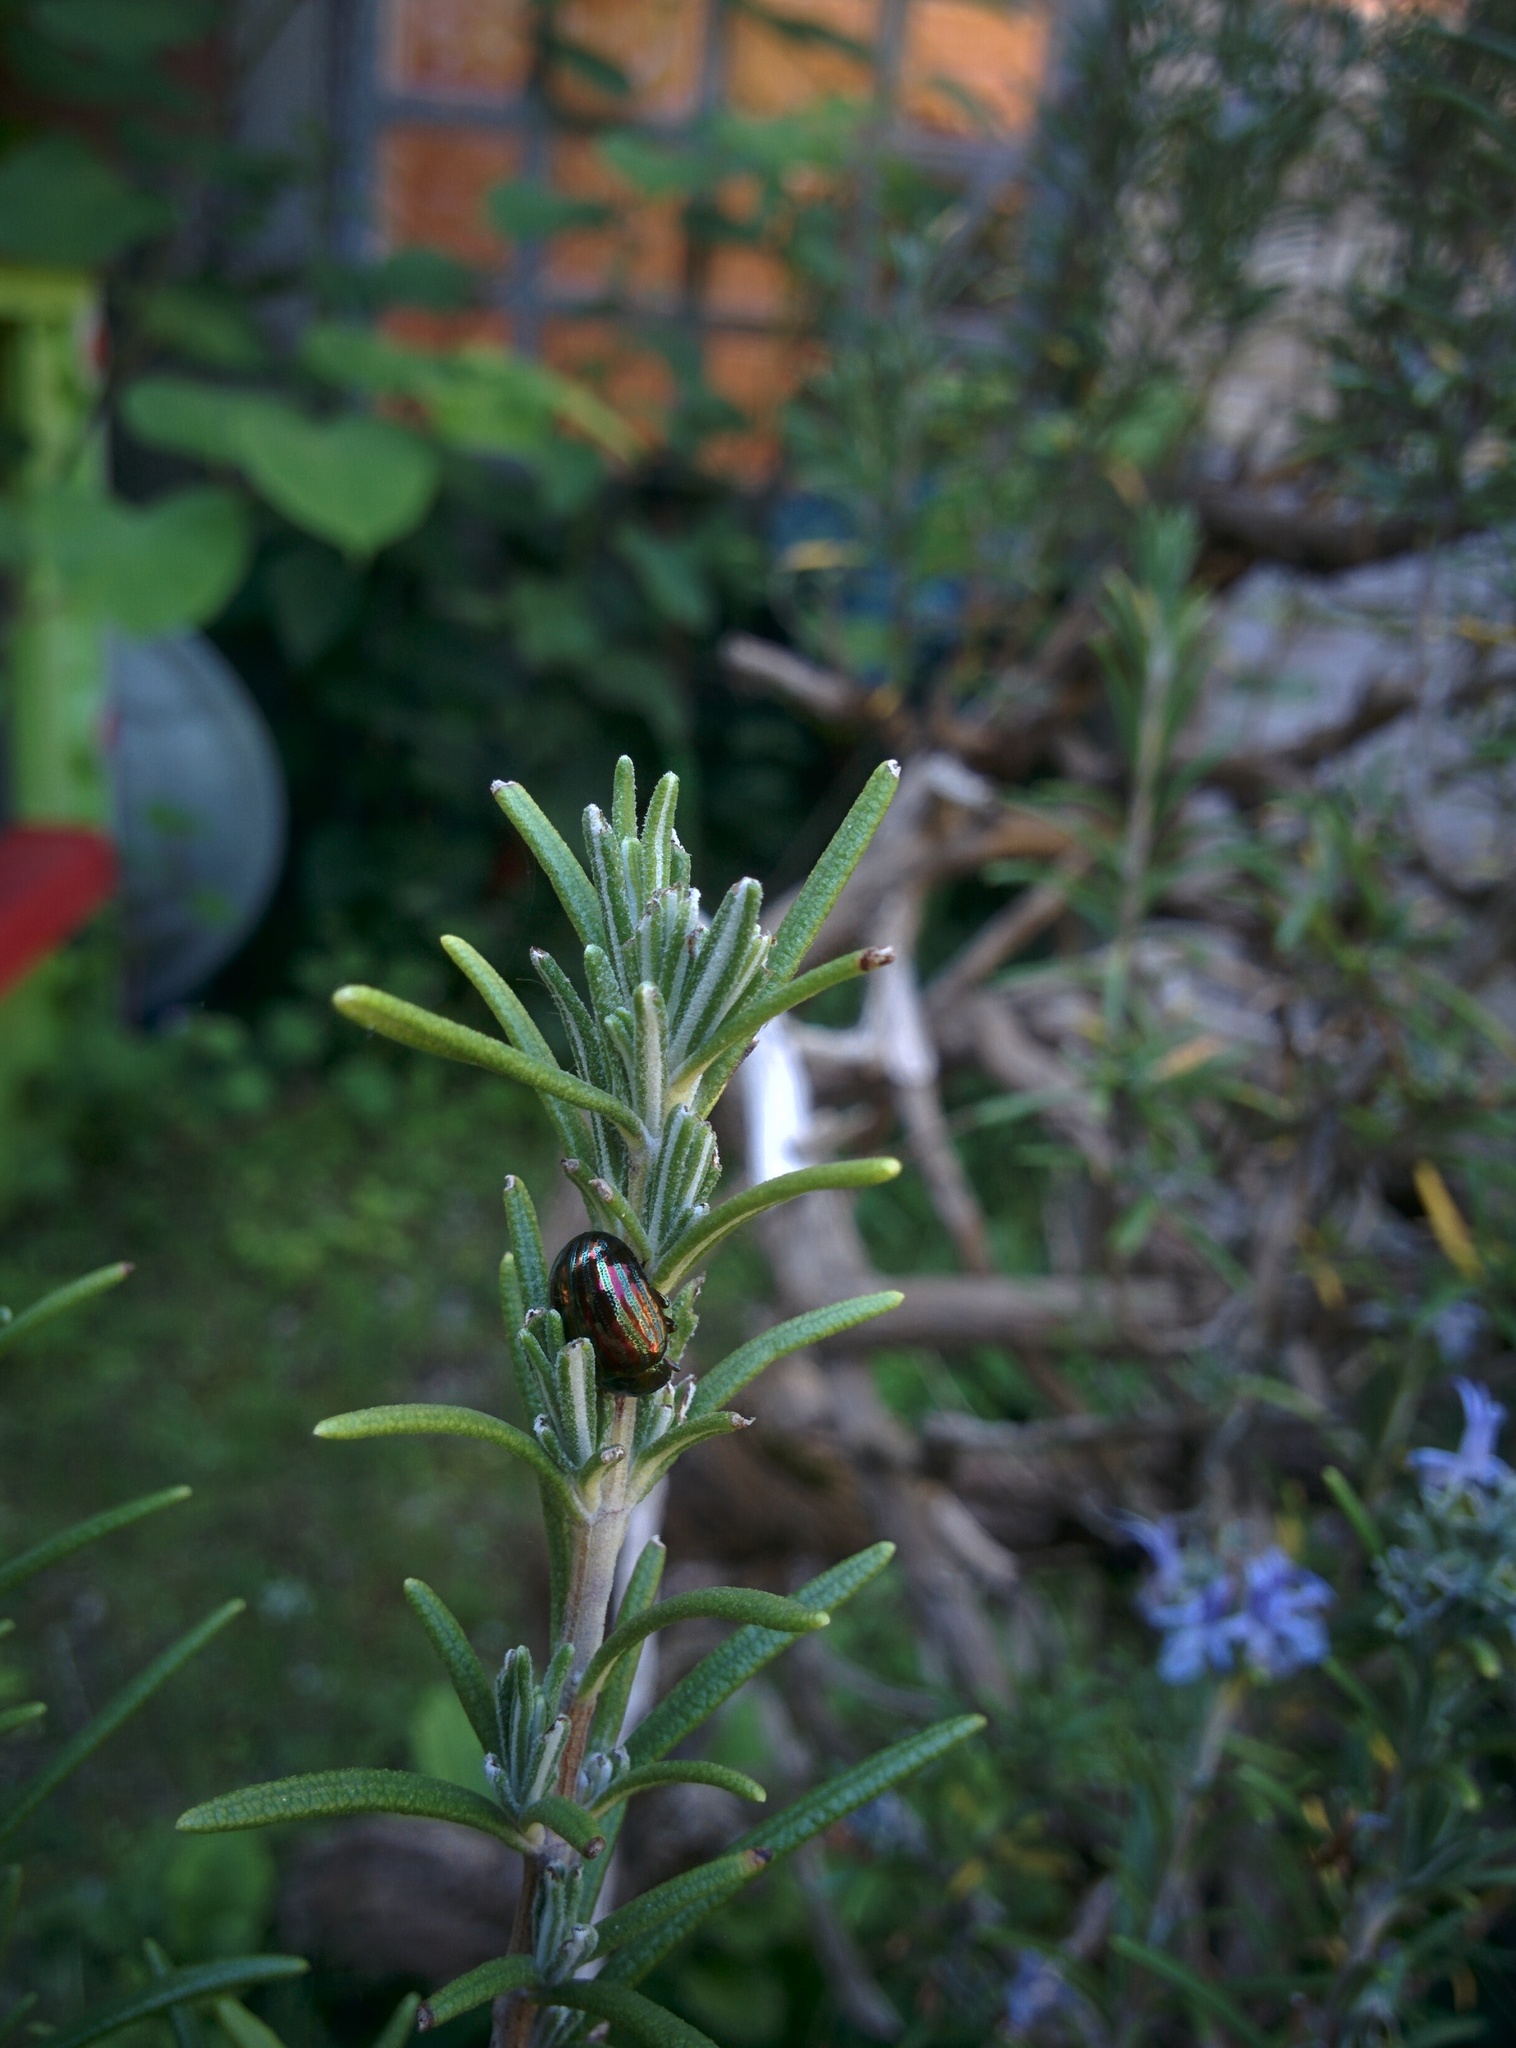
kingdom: Animalia
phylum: Arthropoda
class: Insecta
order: Coleoptera
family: Chrysomelidae
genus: Chrysolina
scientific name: Chrysolina americana
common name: Rosemary beetle
